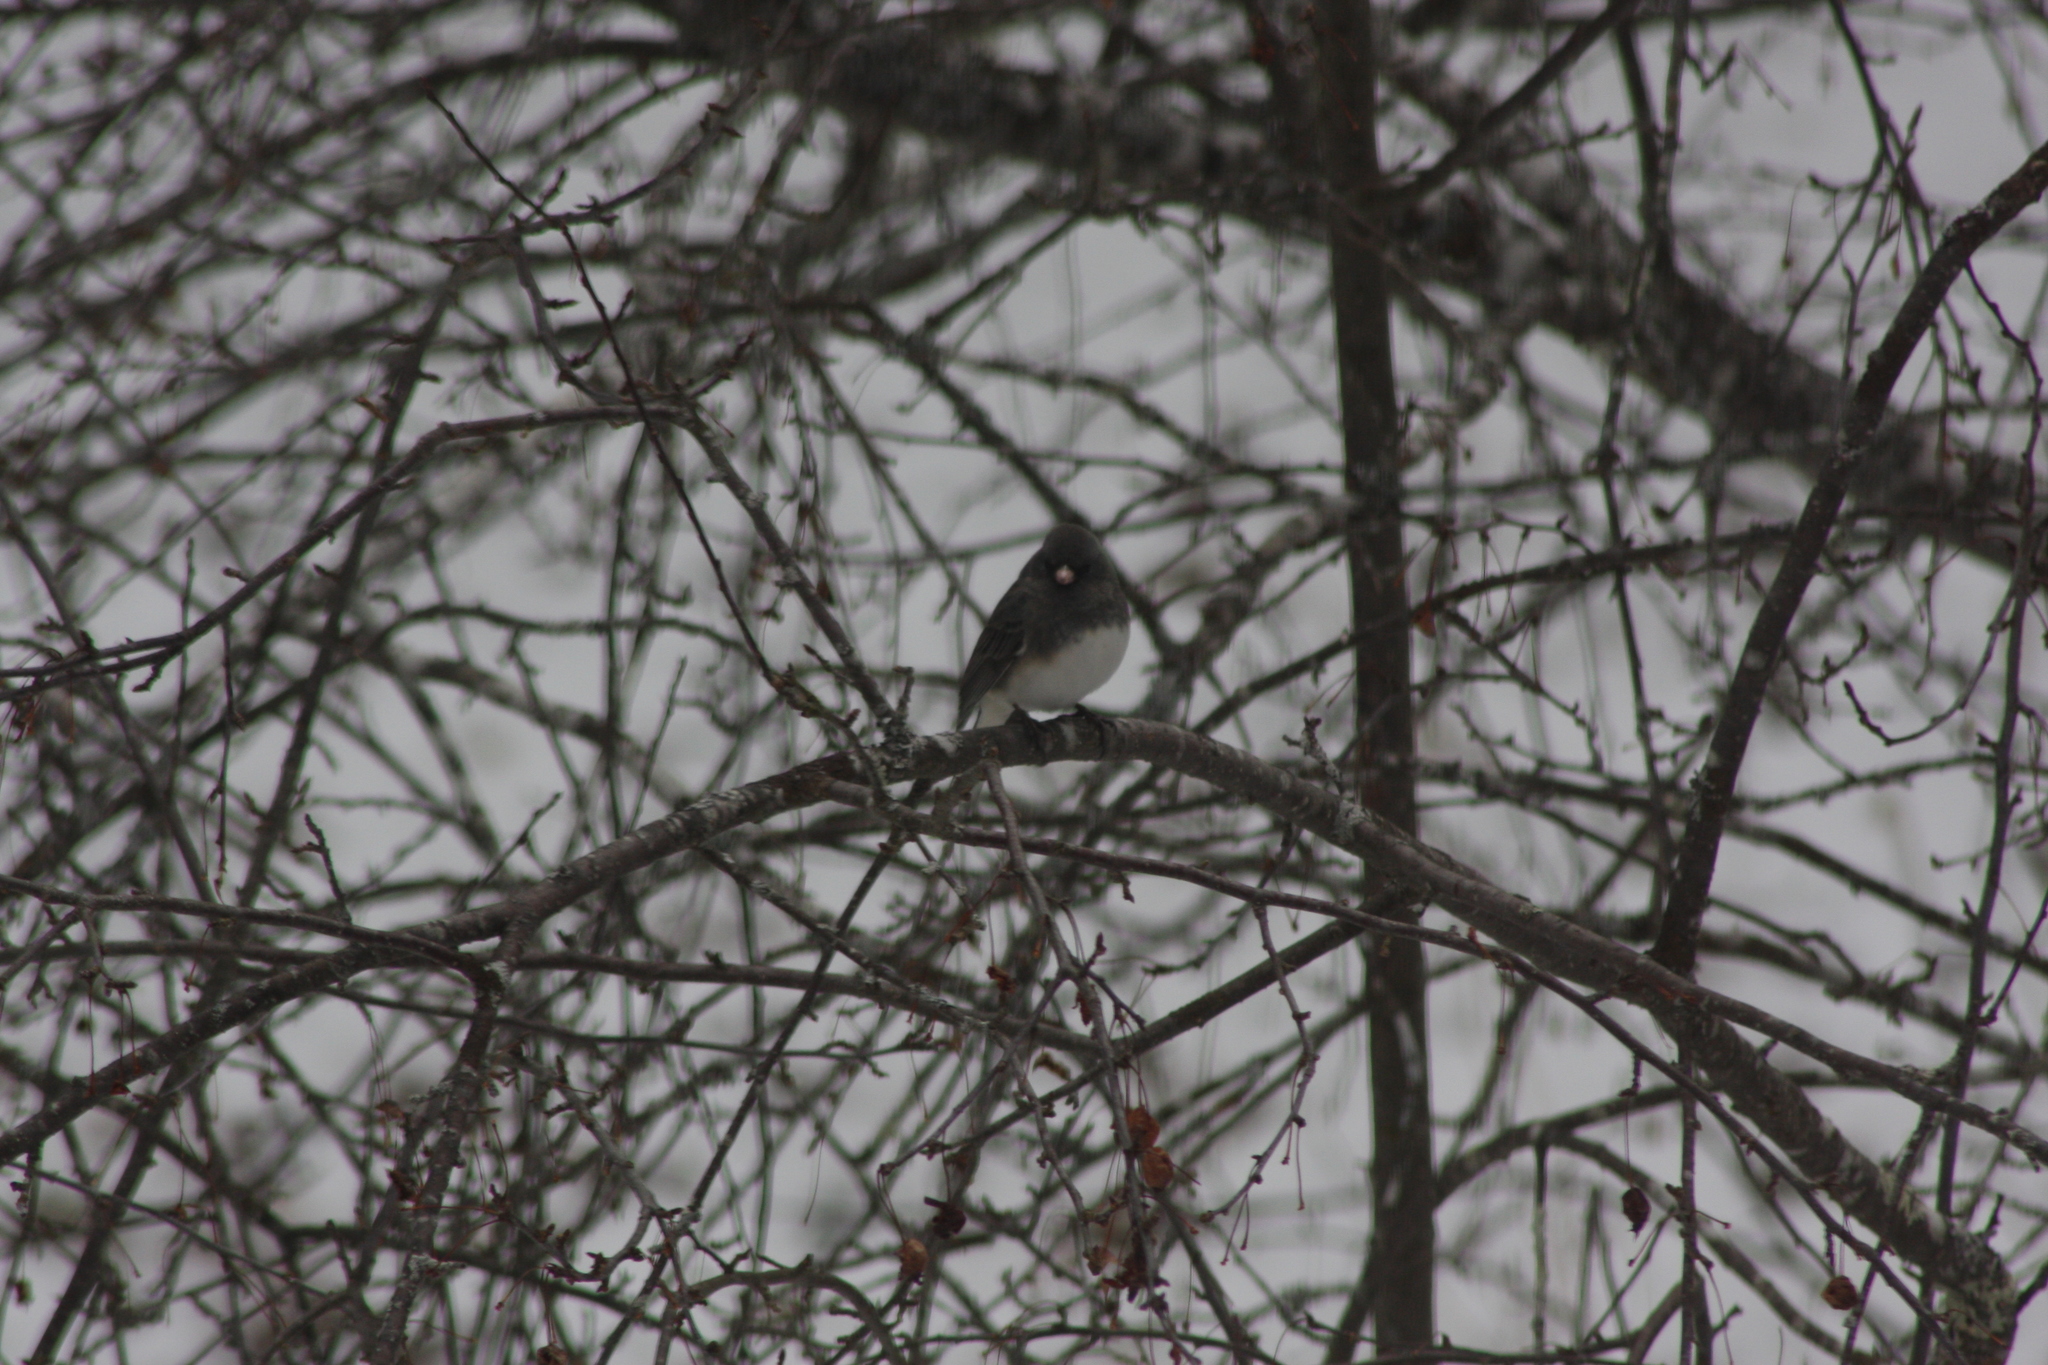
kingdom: Animalia
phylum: Chordata
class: Aves
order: Passeriformes
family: Passerellidae
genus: Junco
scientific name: Junco hyemalis
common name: Dark-eyed junco
